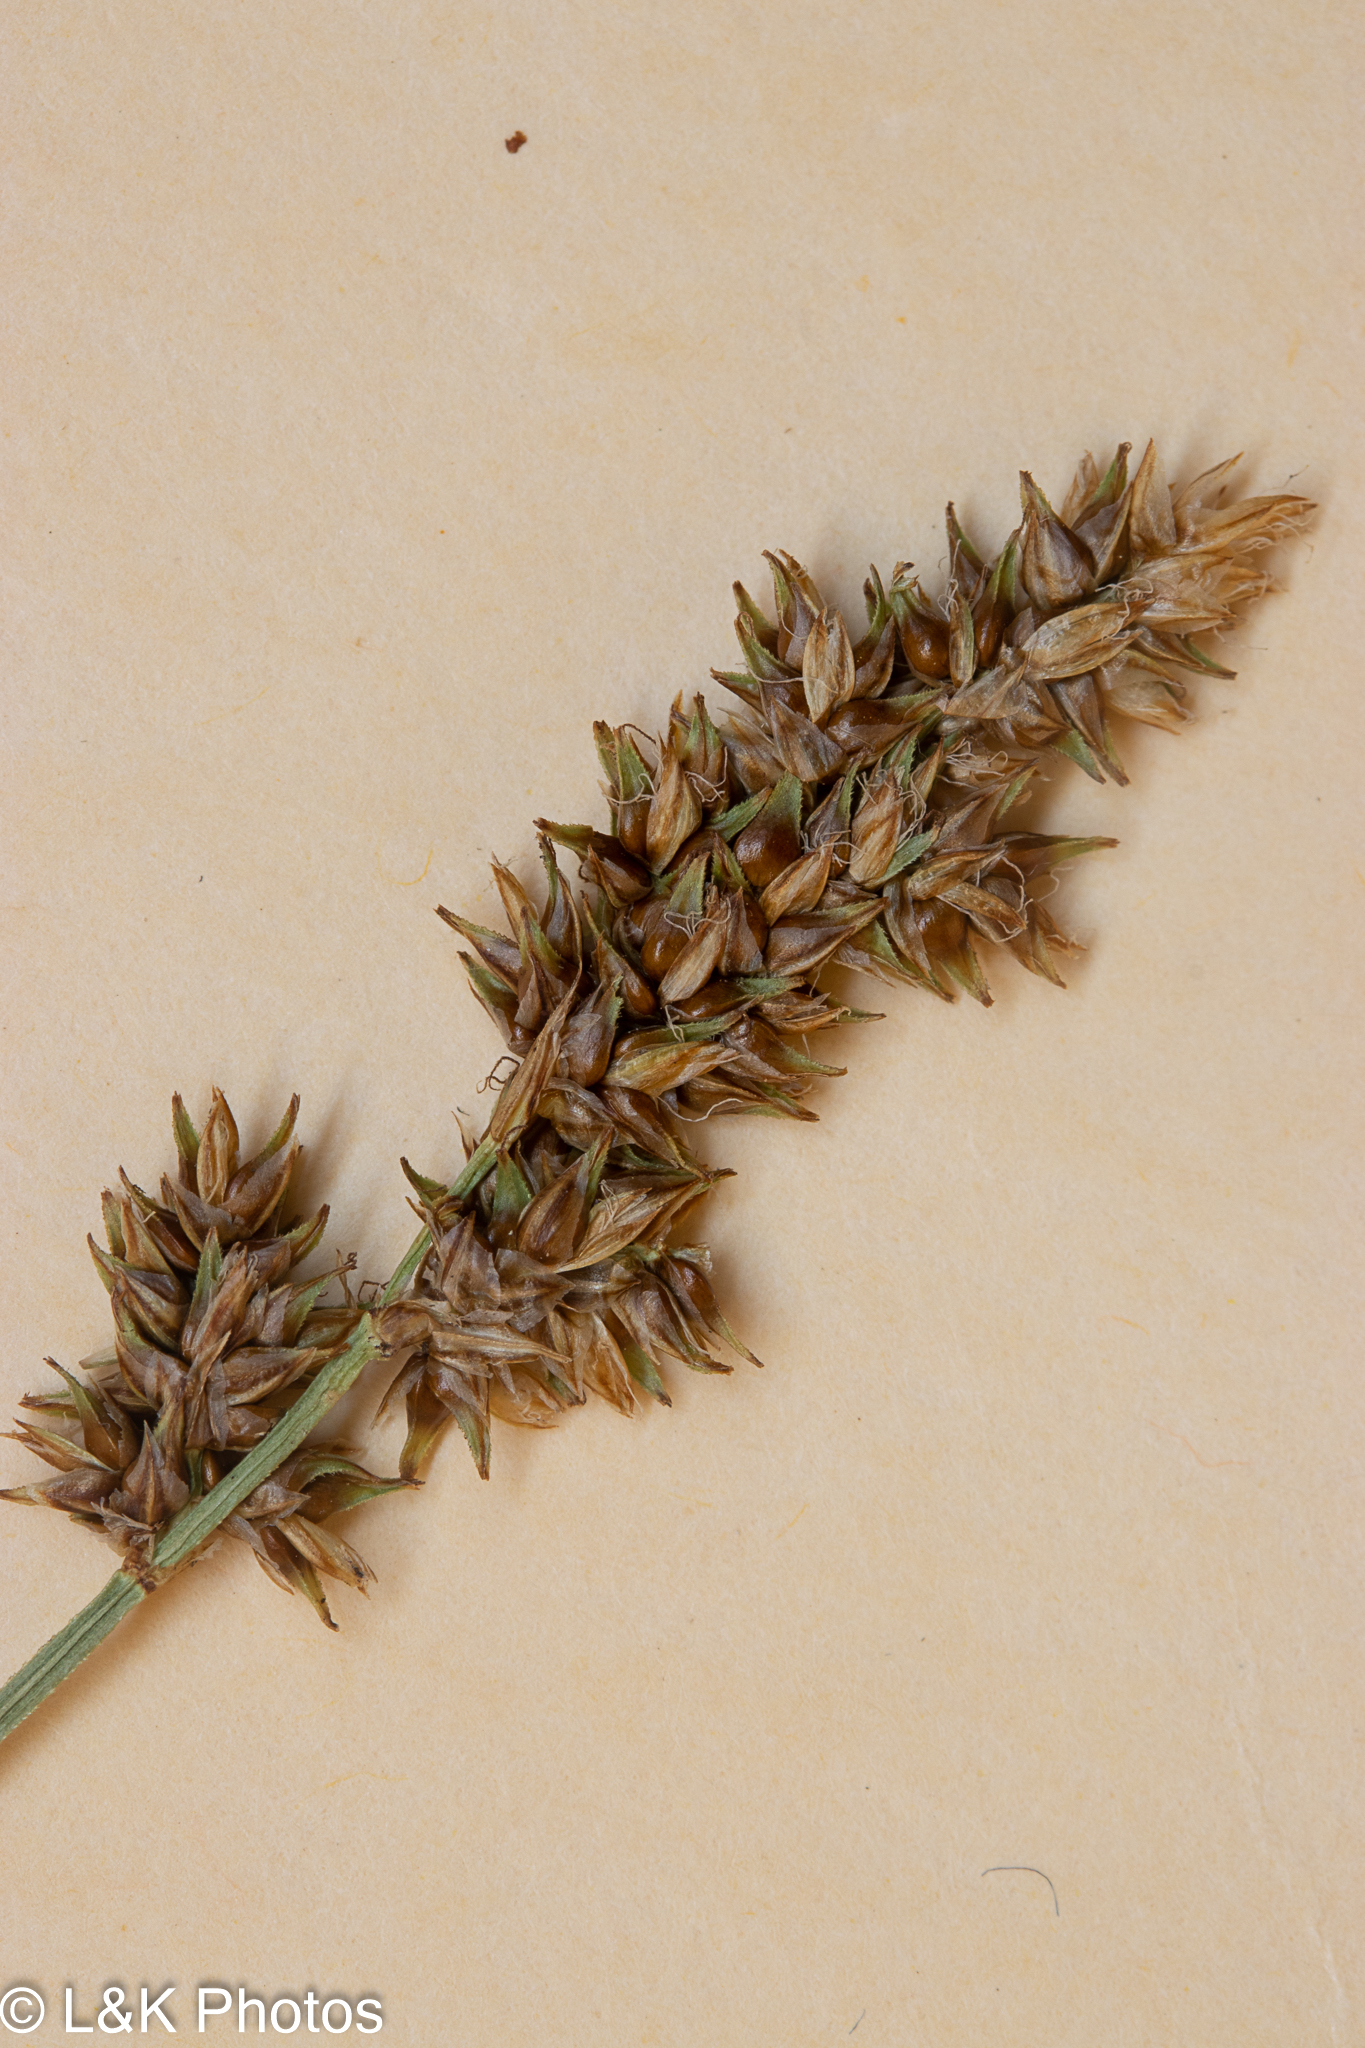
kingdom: Plantae
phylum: Tracheophyta
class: Liliopsida
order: Poales
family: Cyperaceae
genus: Carex
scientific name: Carex diandra
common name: Lesser tussock-sedge
